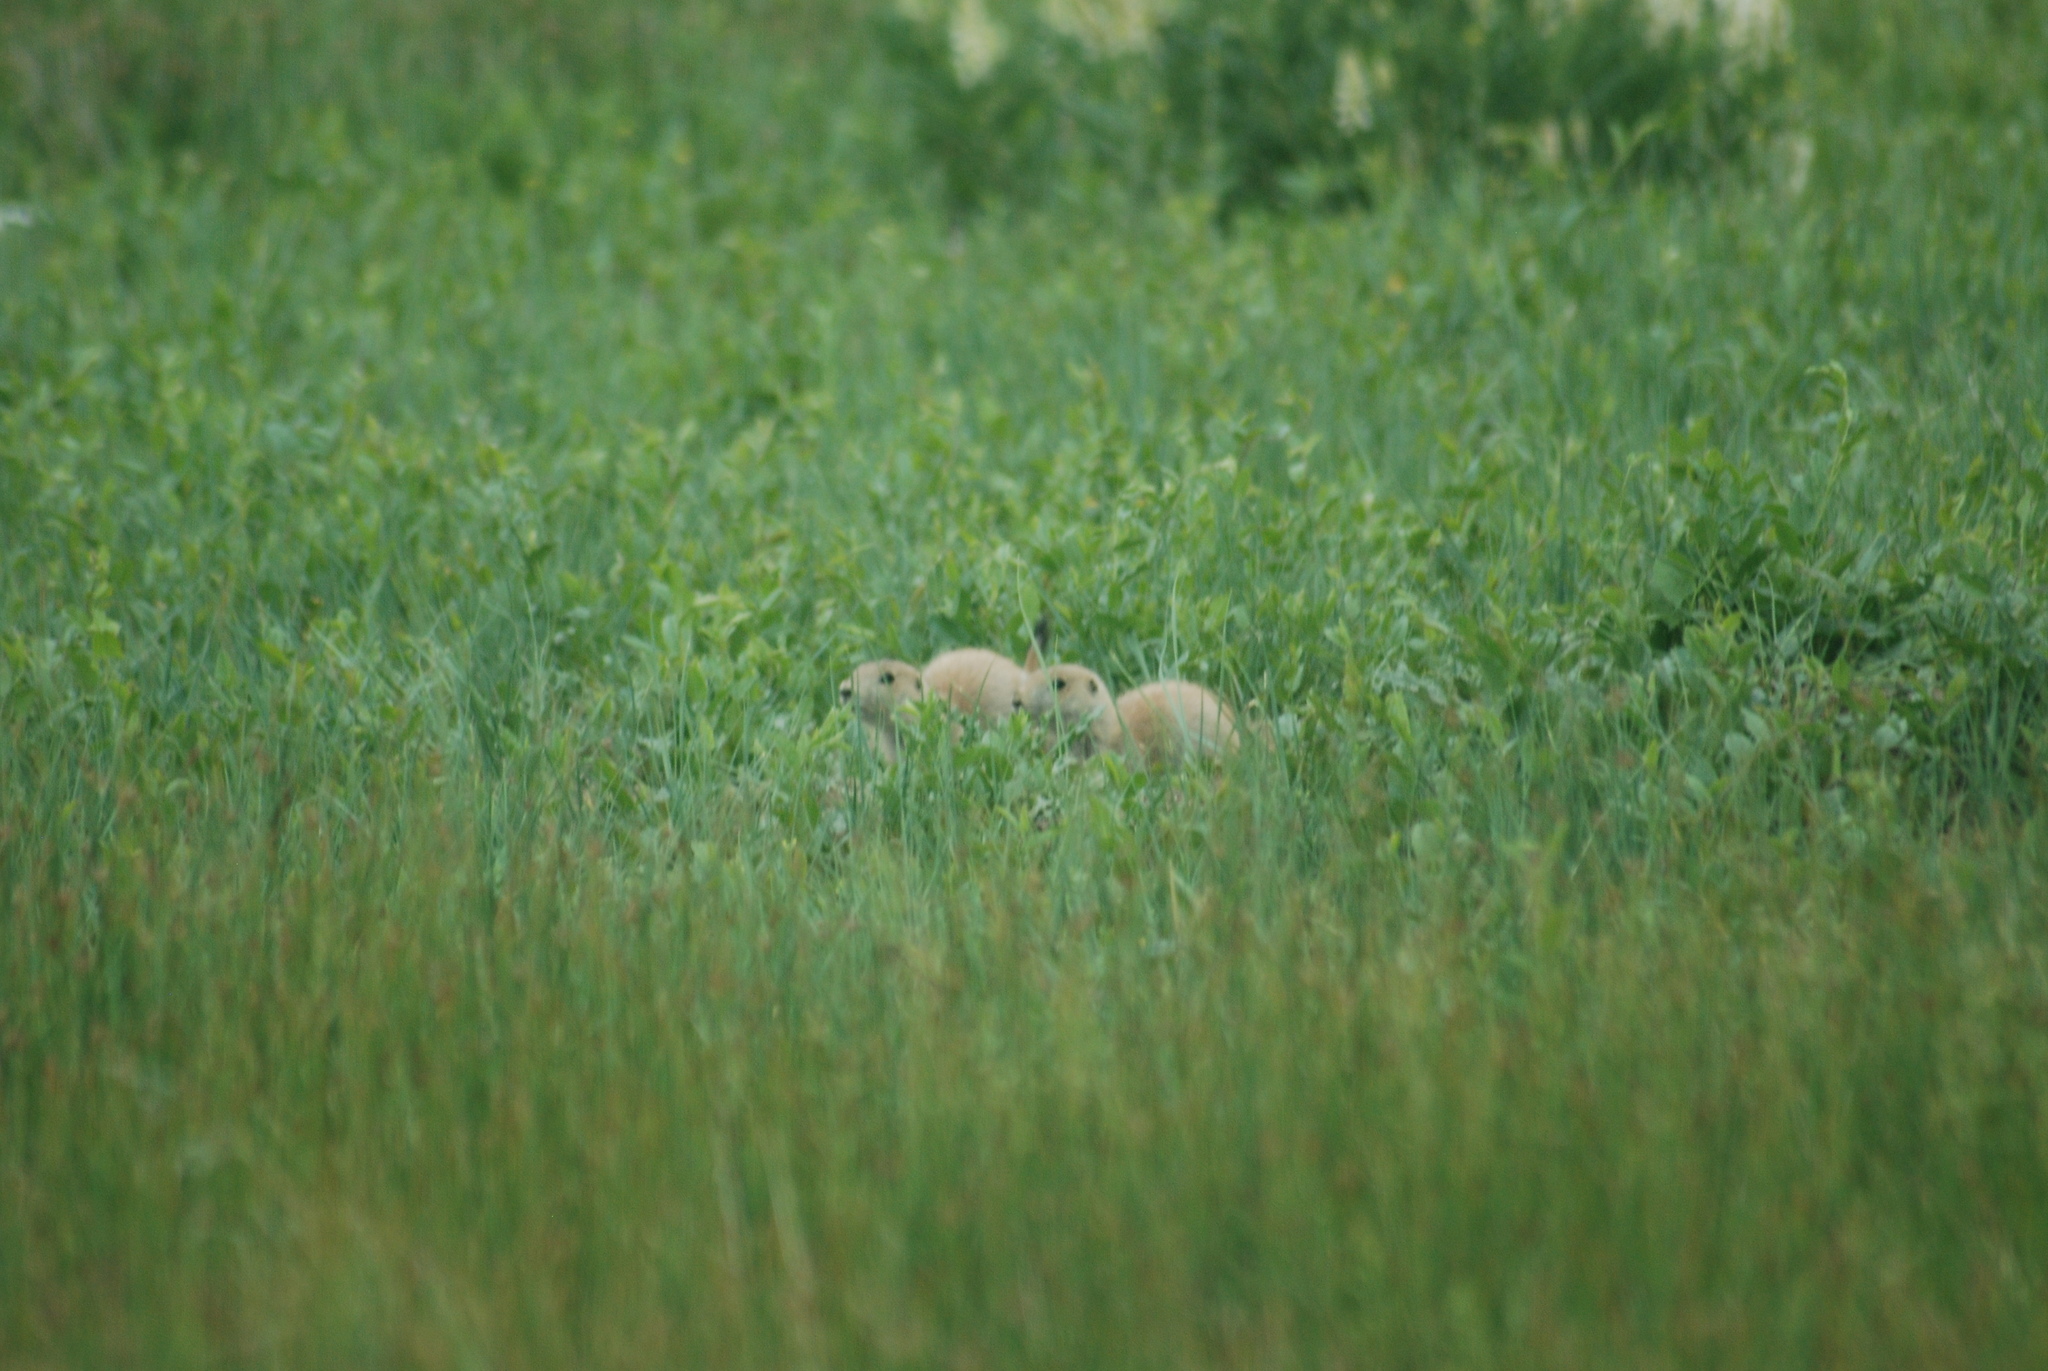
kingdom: Animalia
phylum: Chordata
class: Mammalia
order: Rodentia
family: Sciuridae
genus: Cynomys
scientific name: Cynomys ludovicianus
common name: Black-tailed prairie dog
